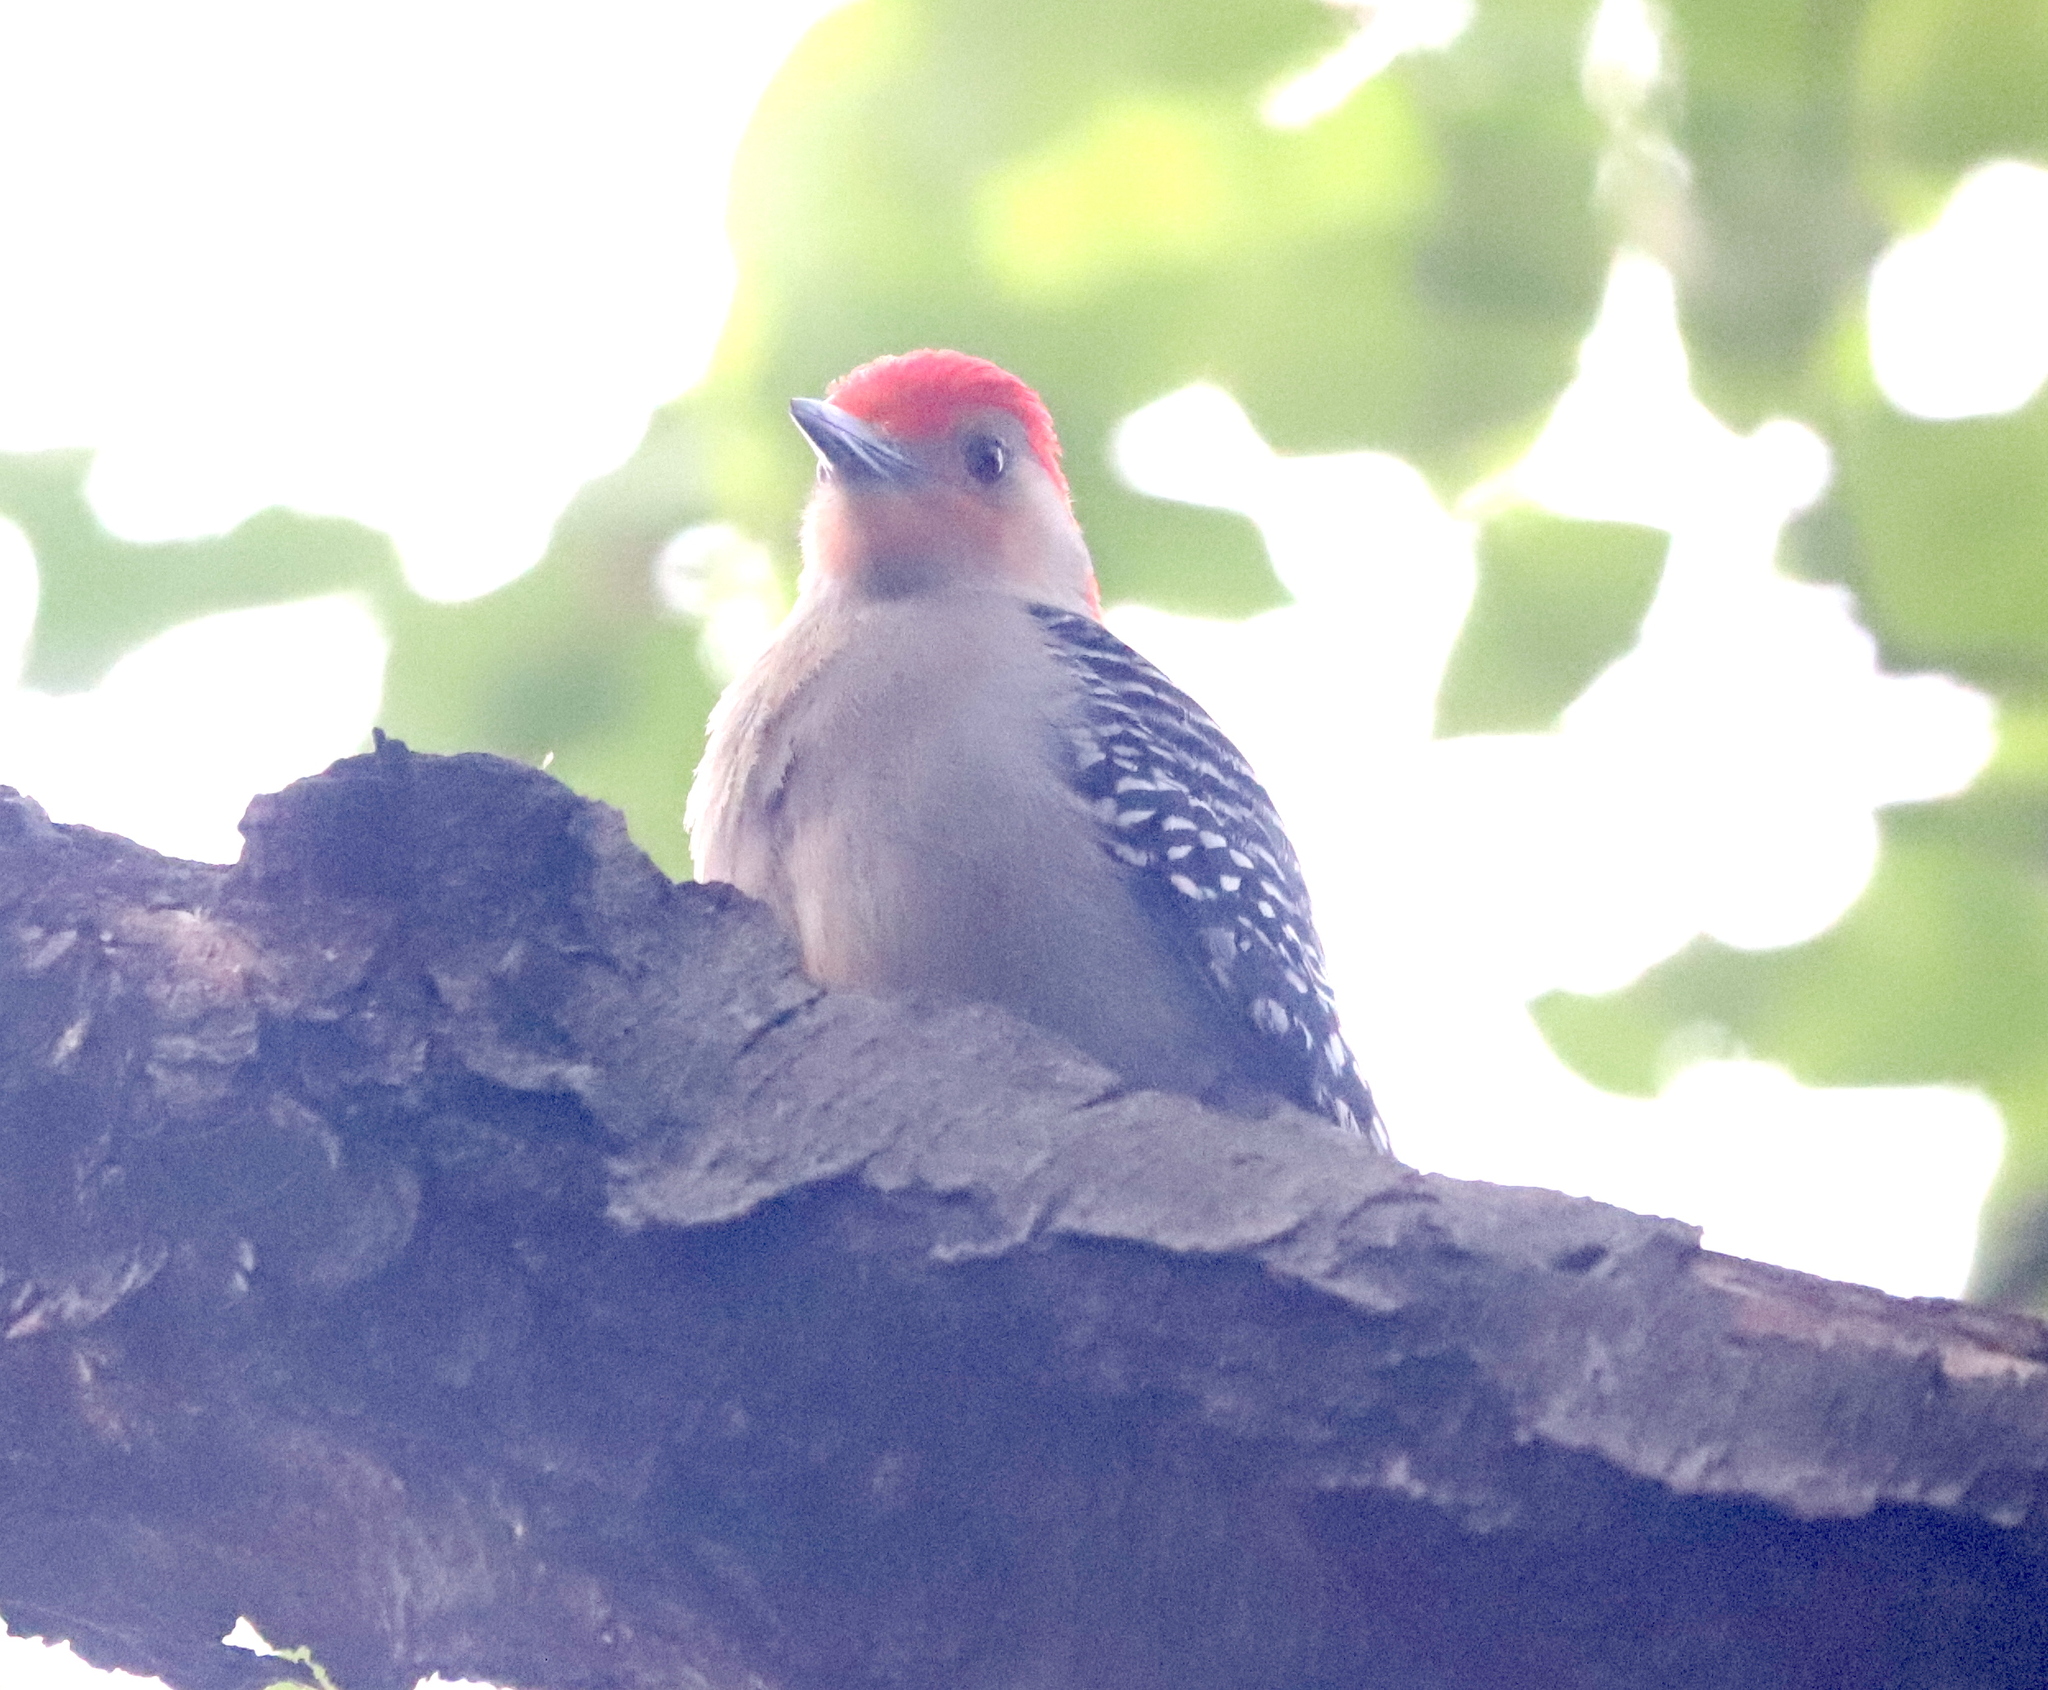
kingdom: Animalia
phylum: Chordata
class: Aves
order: Piciformes
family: Picidae
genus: Melanerpes
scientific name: Melanerpes carolinus
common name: Red-bellied woodpecker
